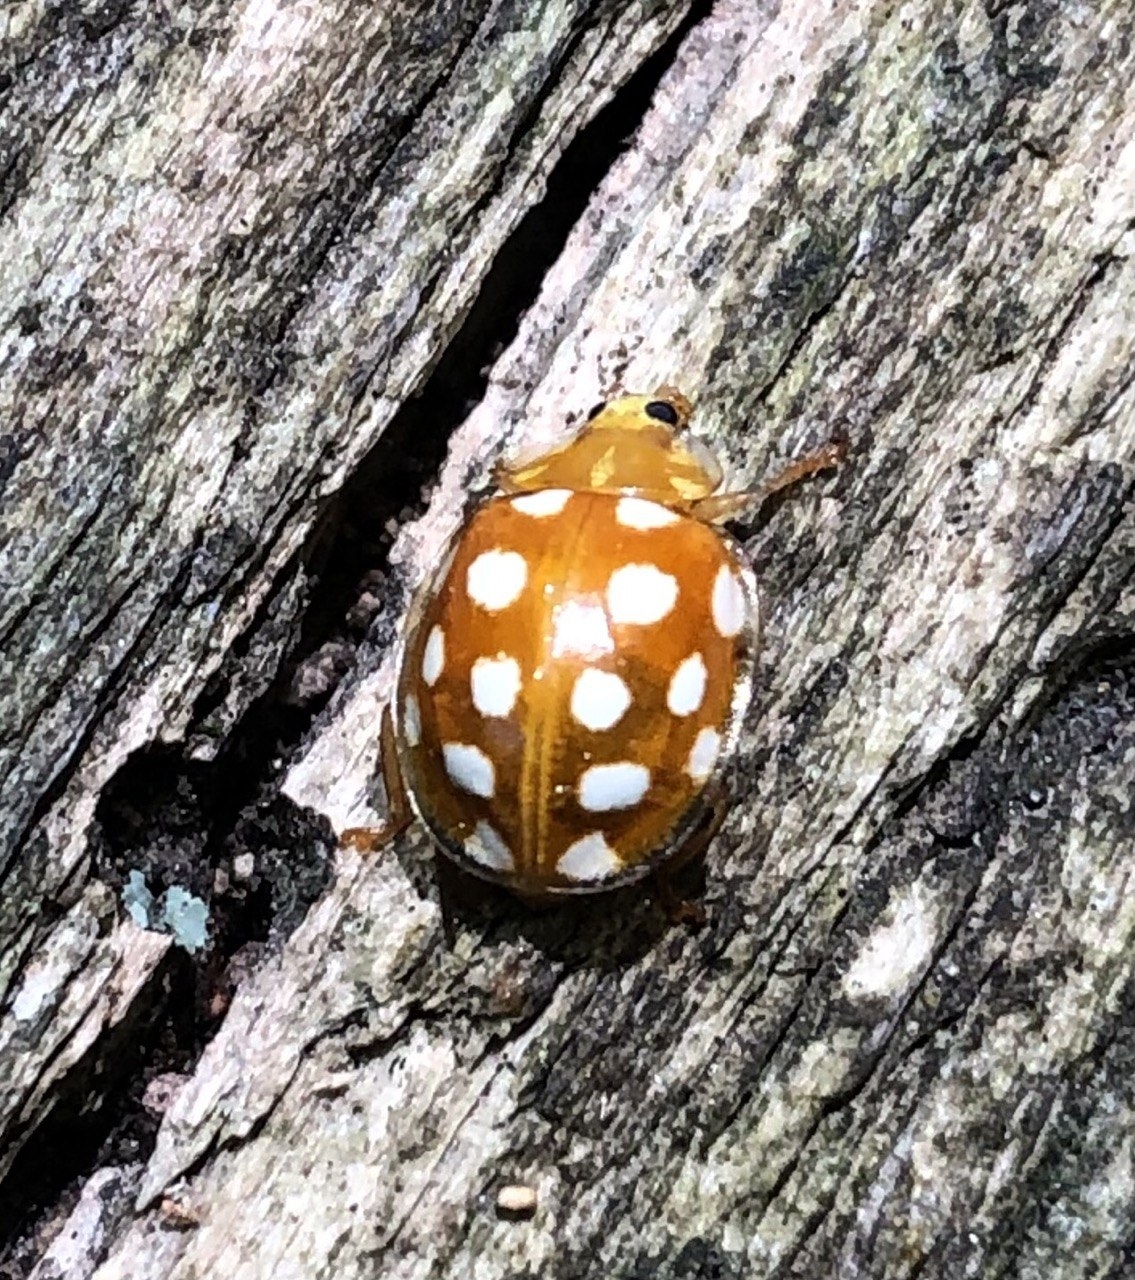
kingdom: Animalia
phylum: Arthropoda
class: Insecta
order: Coleoptera
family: Coccinellidae
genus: Halyzia
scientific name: Halyzia sedecimguttata
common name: Orange ladybird
